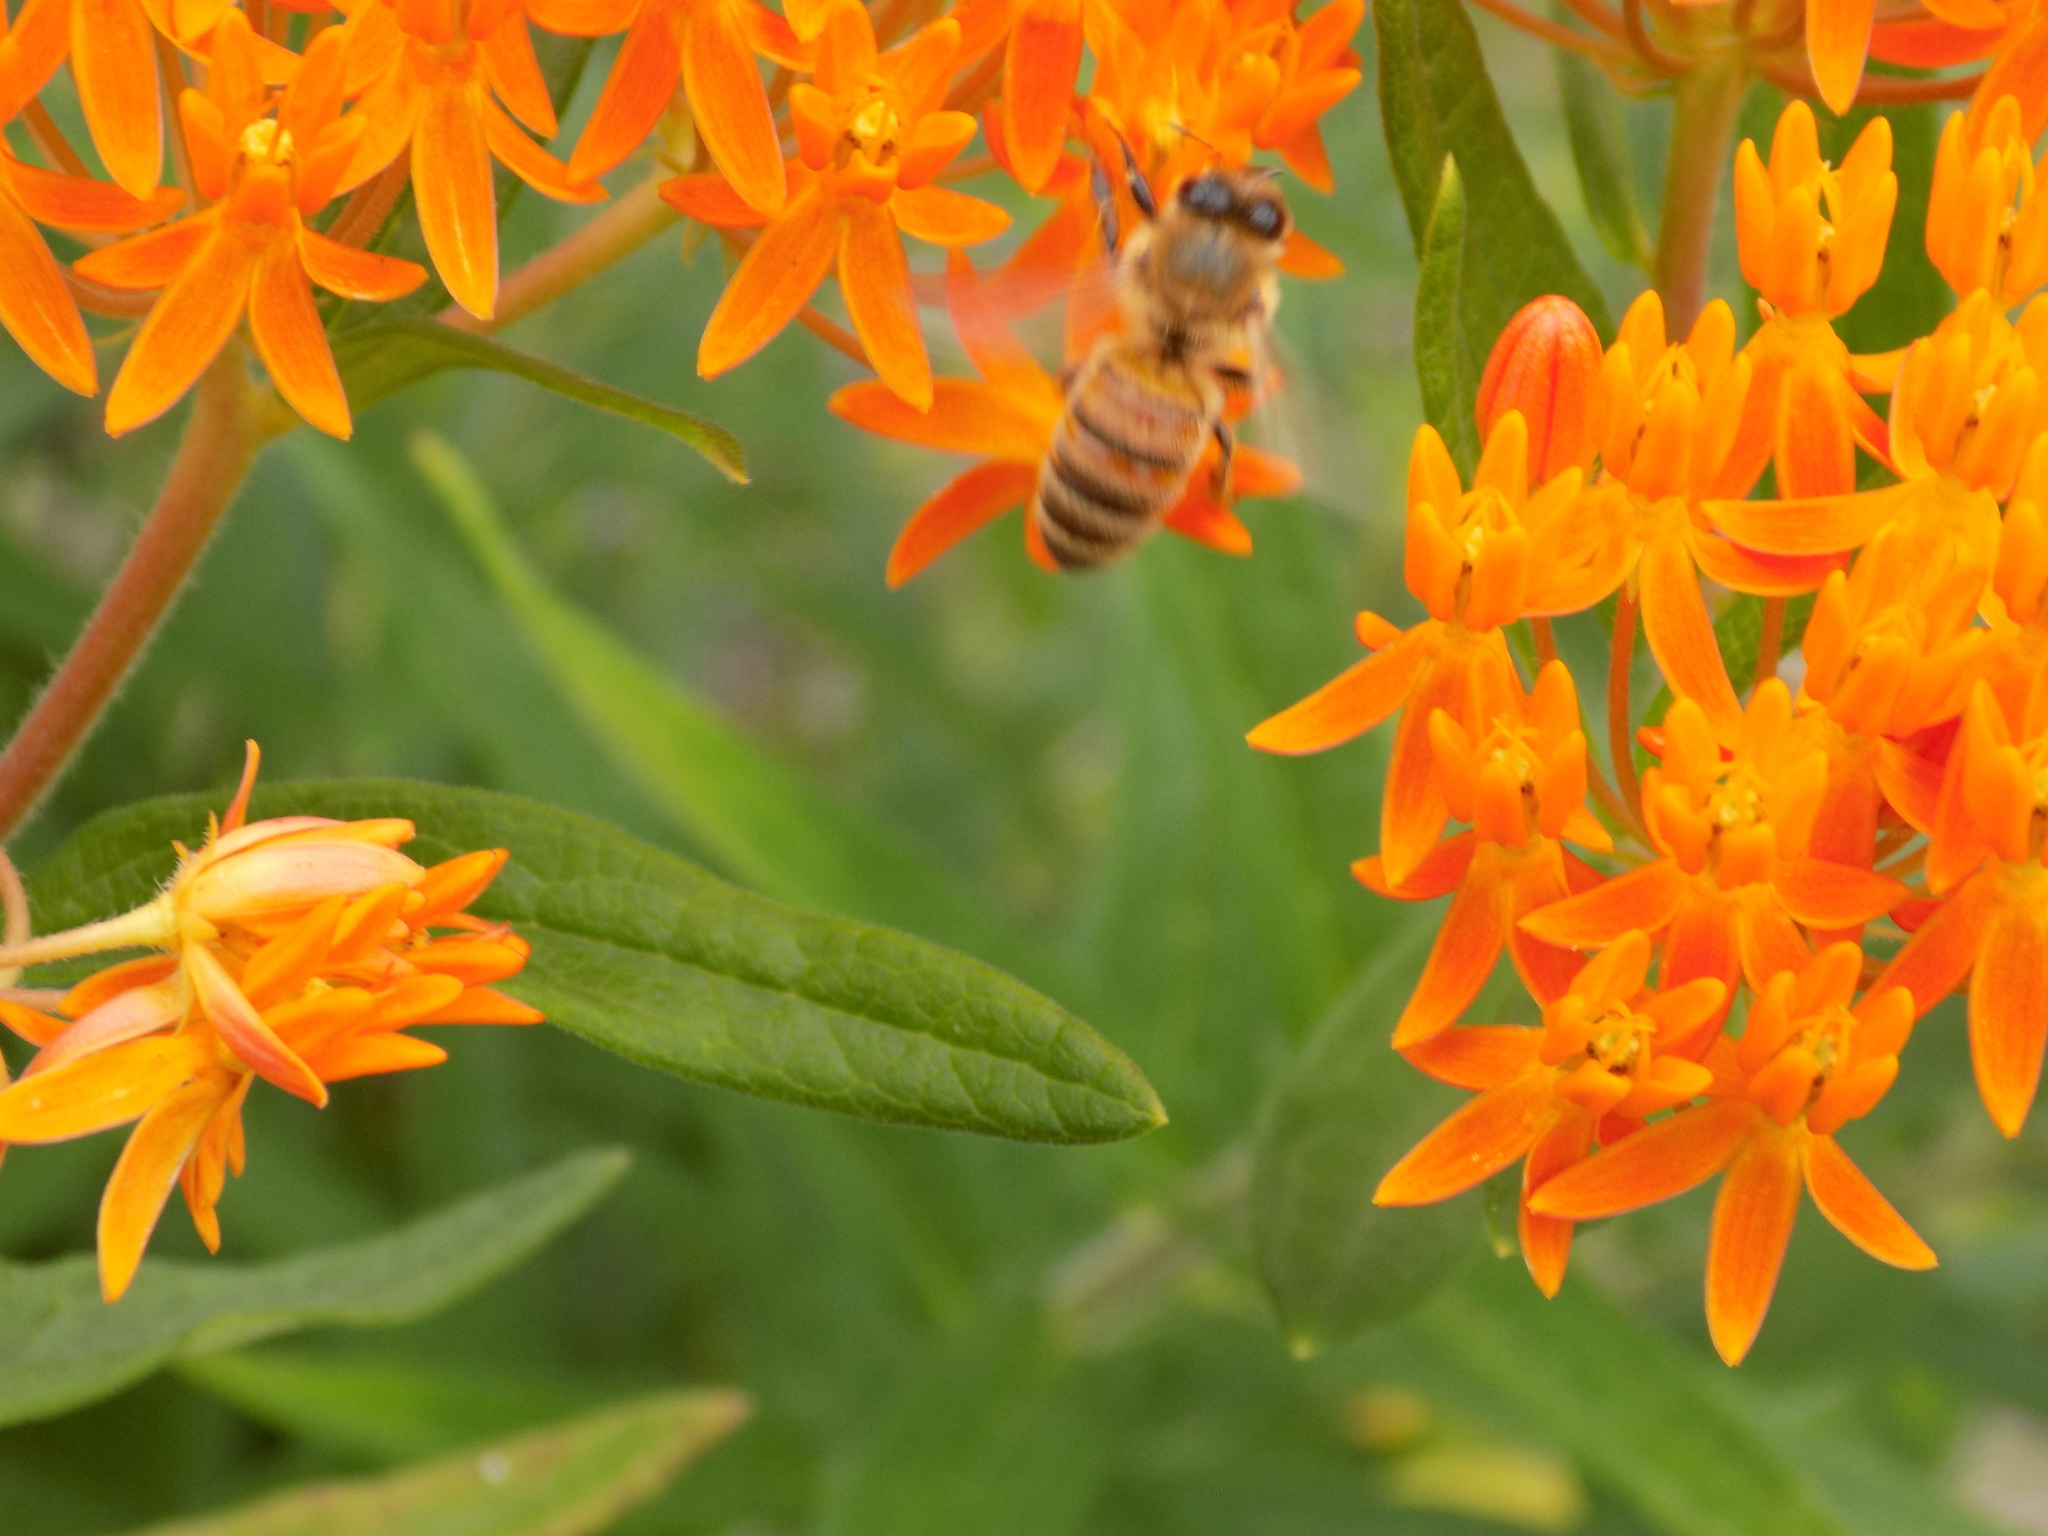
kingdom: Animalia
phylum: Arthropoda
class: Insecta
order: Hymenoptera
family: Apidae
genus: Apis
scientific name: Apis mellifera
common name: Honey bee
